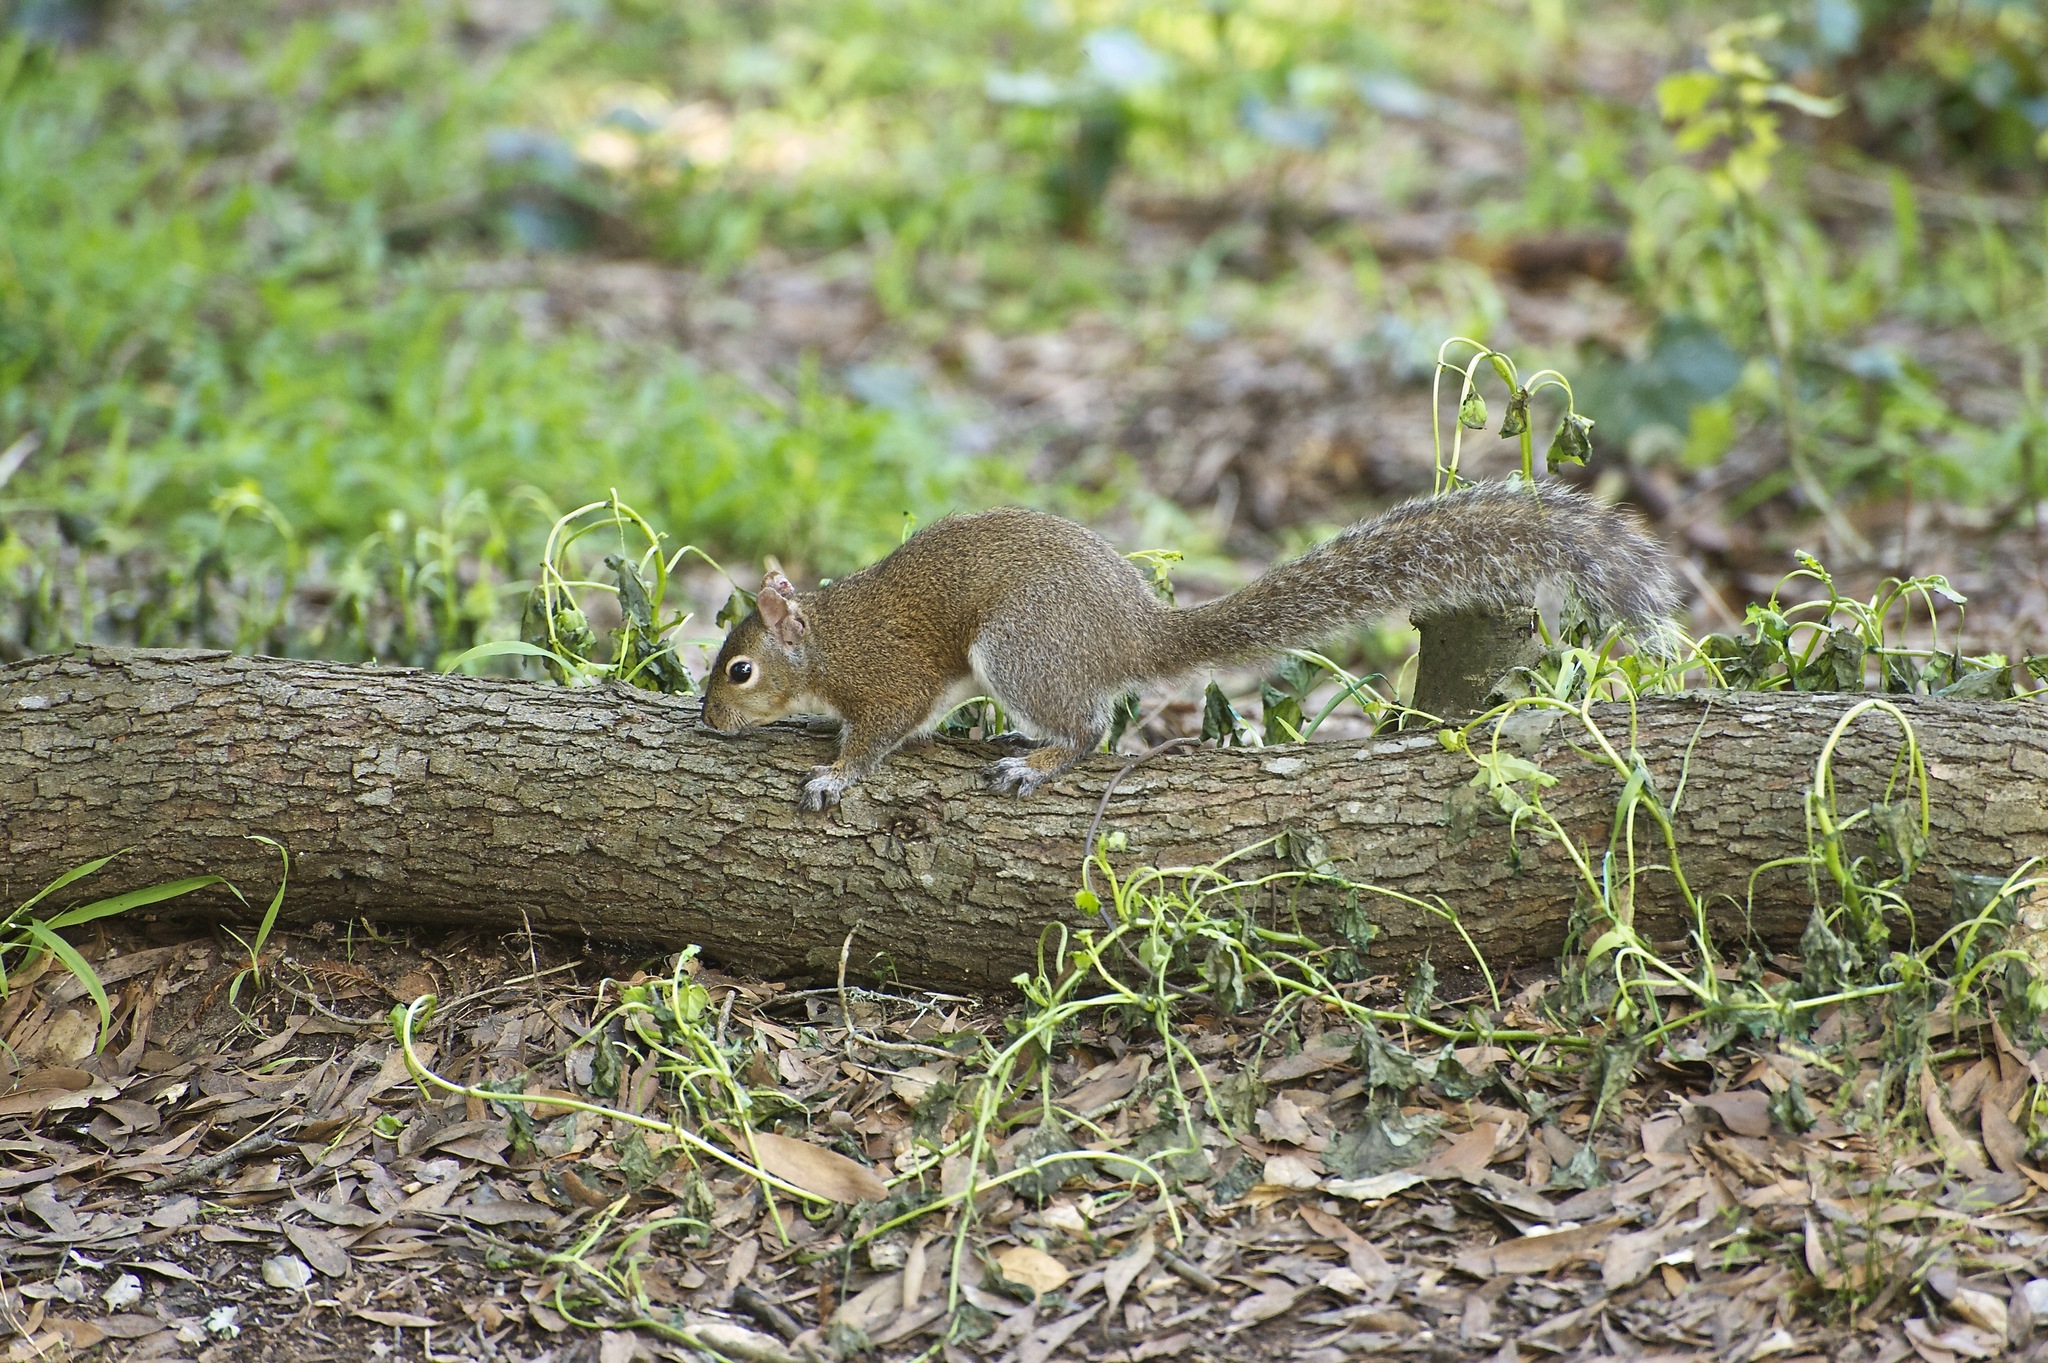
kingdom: Animalia
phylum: Chordata
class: Mammalia
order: Rodentia
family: Sciuridae
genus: Sciurus
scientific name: Sciurus carolinensis
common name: Eastern gray squirrel
